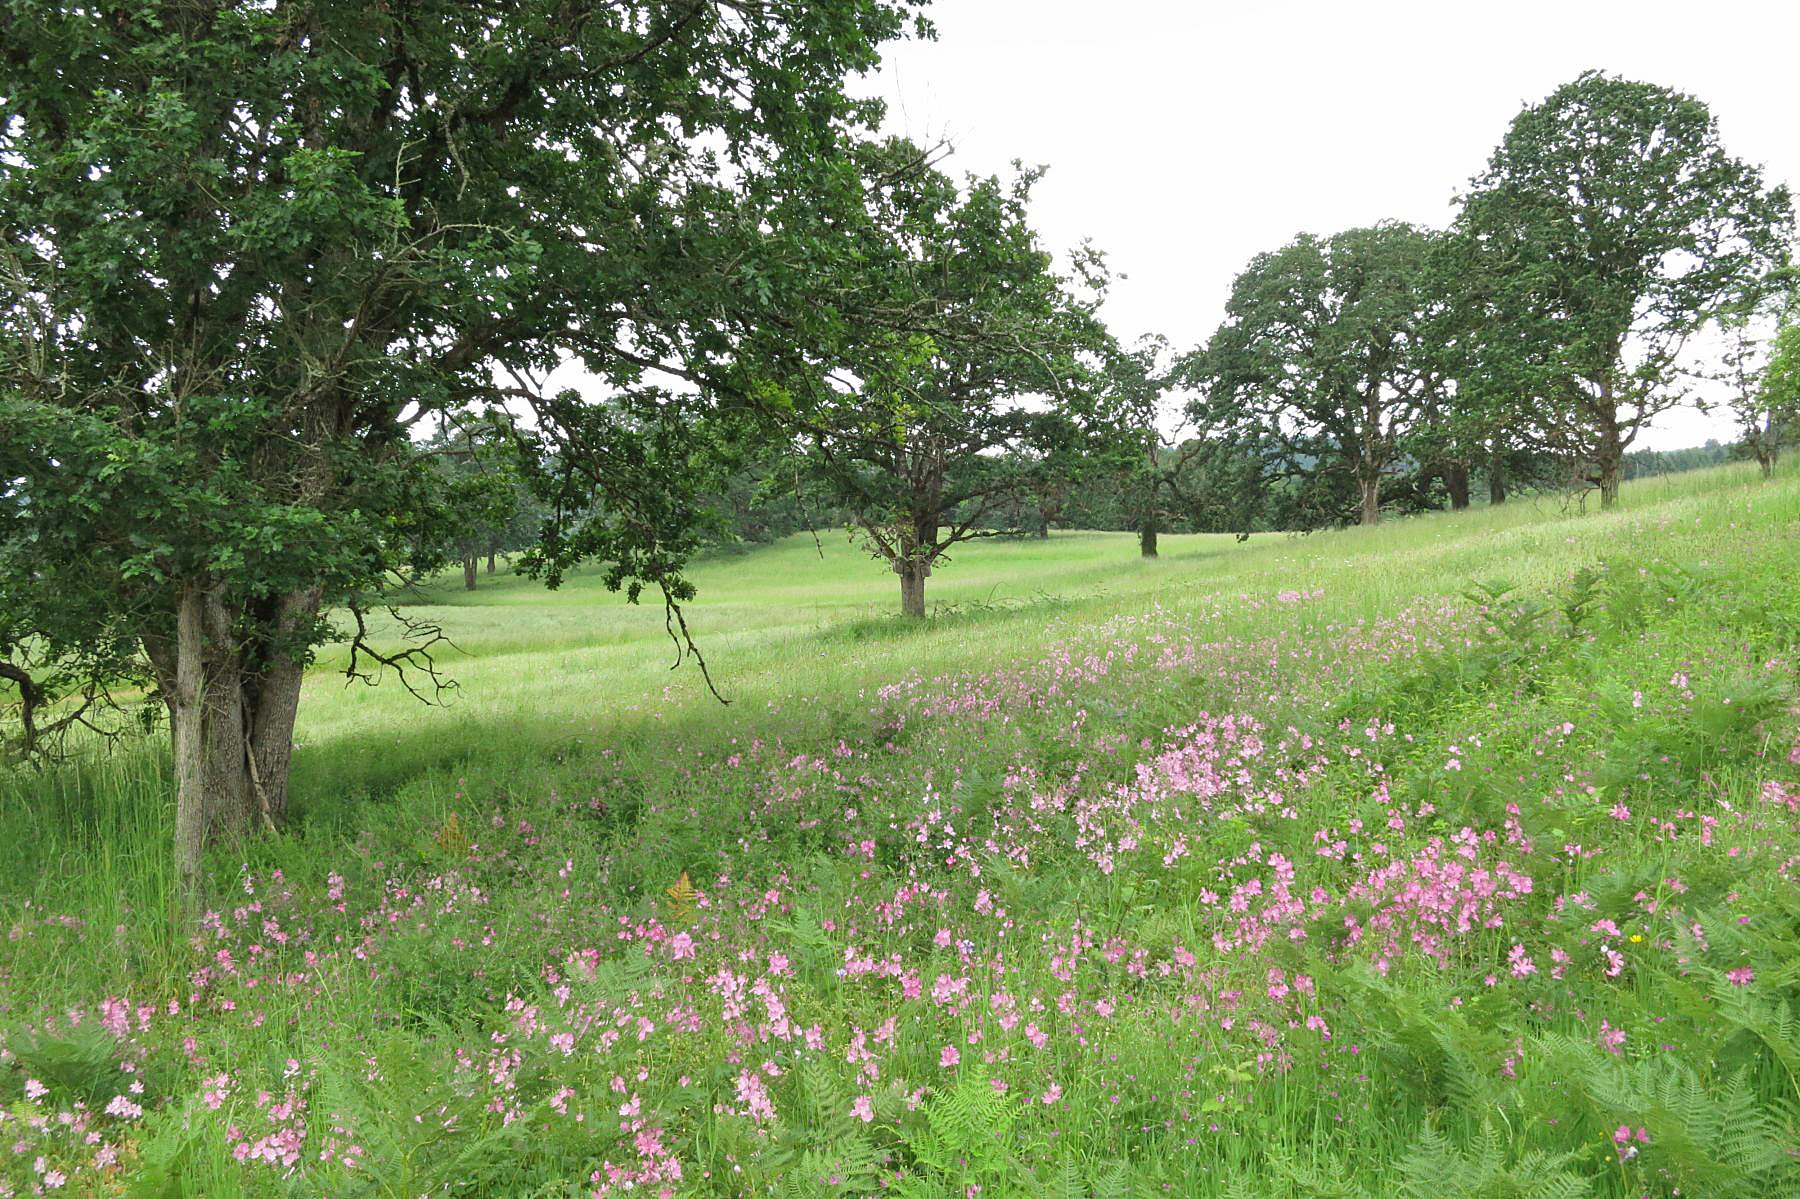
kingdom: Plantae
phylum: Tracheophyta
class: Magnoliopsida
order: Fagales
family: Fagaceae
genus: Quercus
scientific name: Quercus garryana
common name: Garry oak
